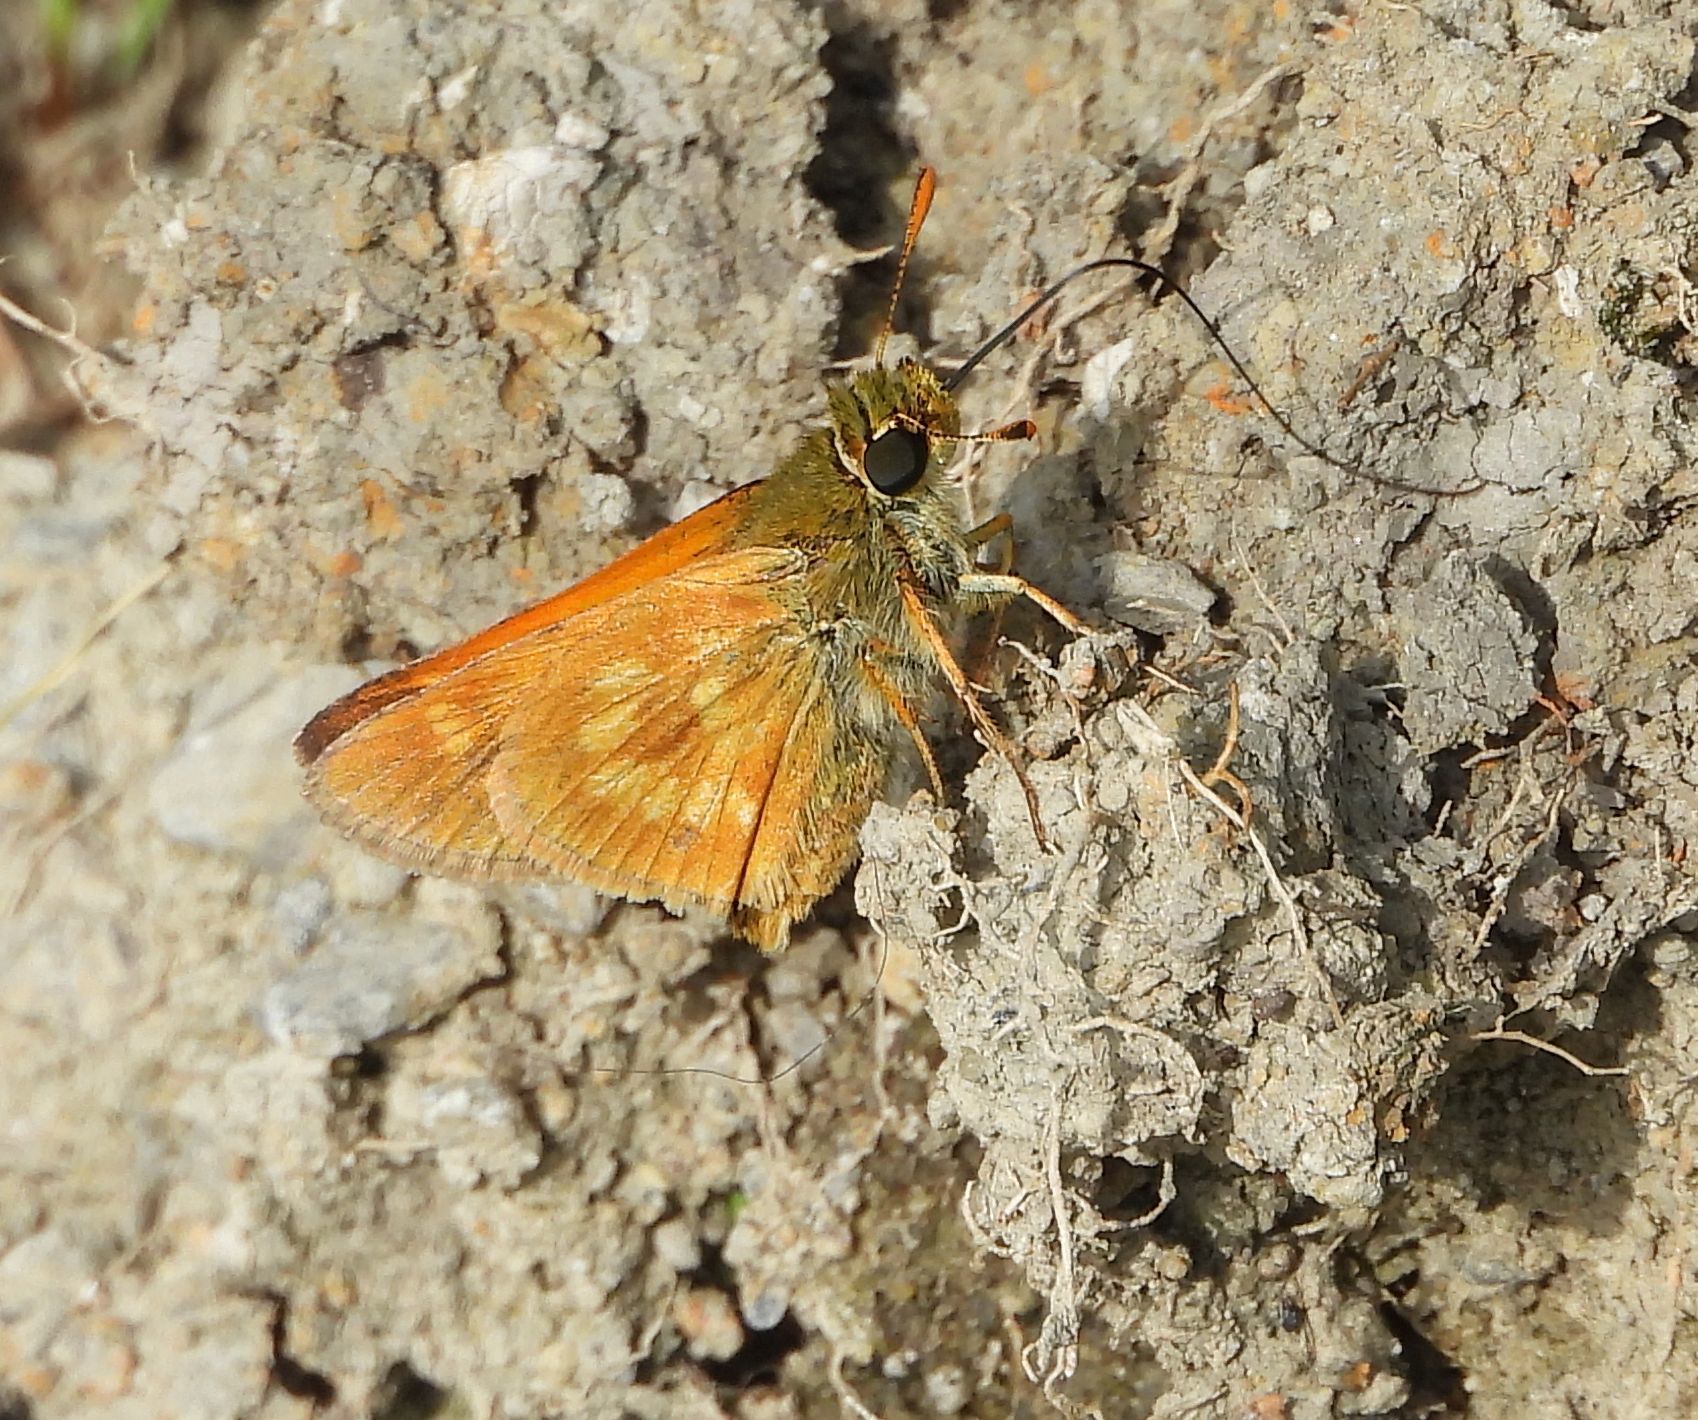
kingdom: Animalia
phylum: Arthropoda
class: Insecta
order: Lepidoptera
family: Hesperiidae
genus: Polites
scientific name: Polites mystic
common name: Long dash
